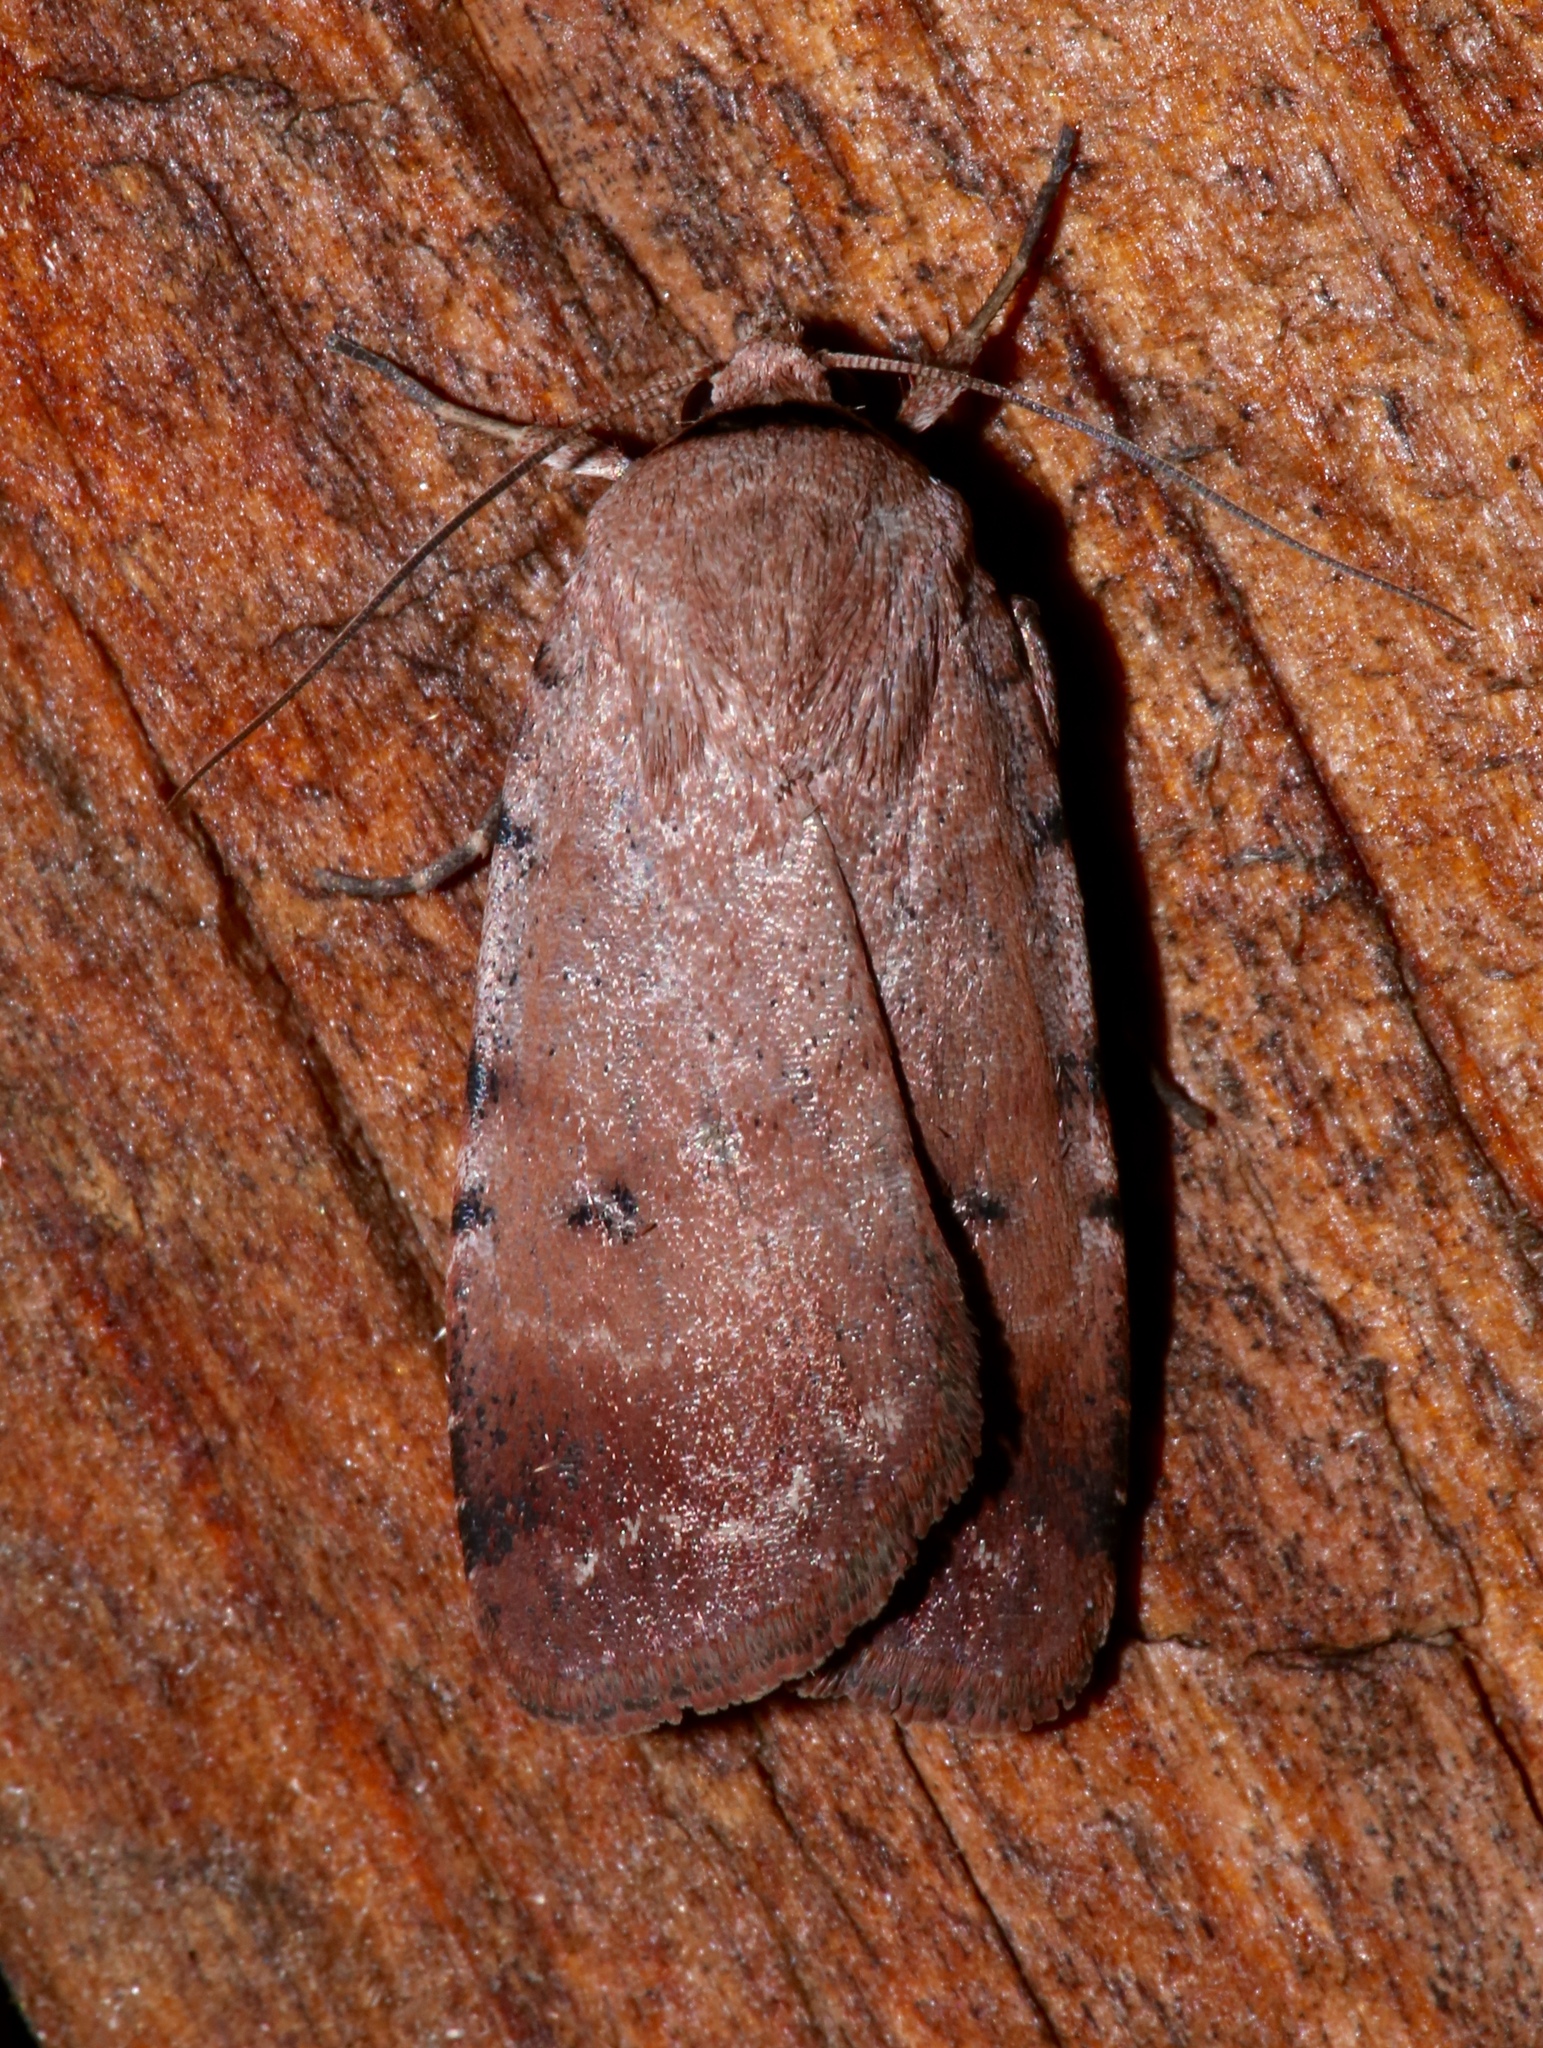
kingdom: Animalia
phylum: Arthropoda
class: Insecta
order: Lepidoptera
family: Noctuidae
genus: Anicla
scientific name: Anicla illapsa
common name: Snowy dart
